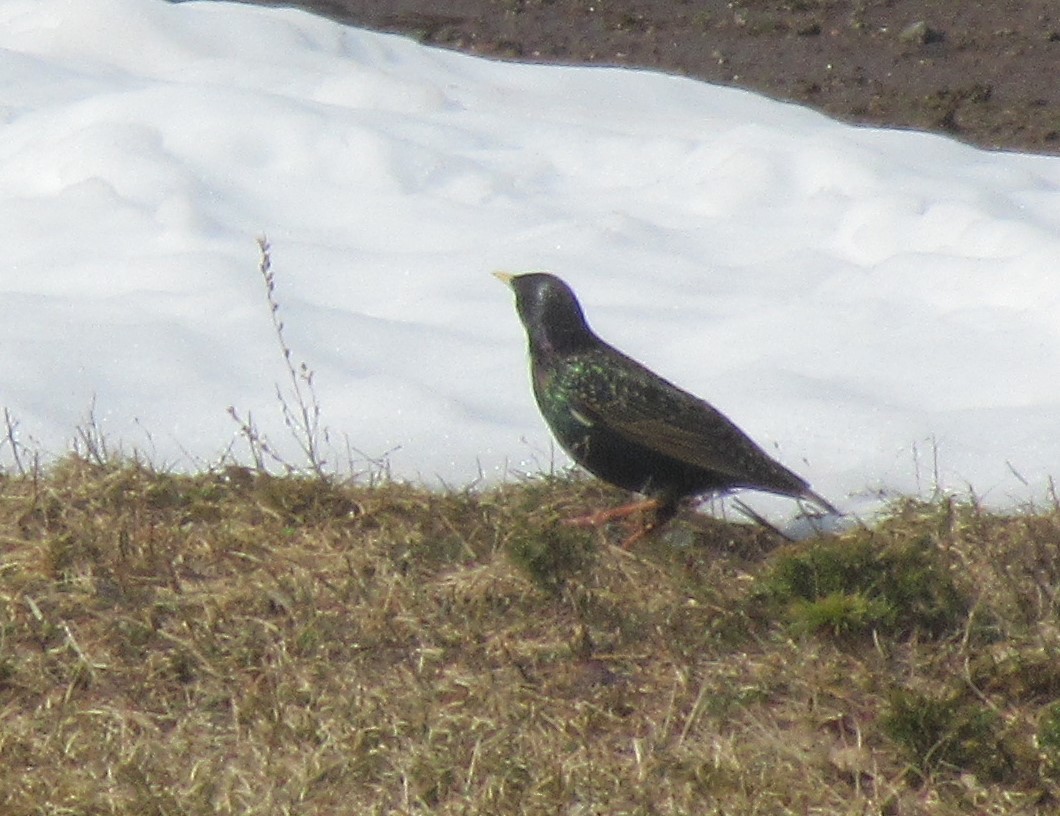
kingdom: Animalia
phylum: Chordata
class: Aves
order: Passeriformes
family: Sturnidae
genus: Sturnus
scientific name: Sturnus vulgaris
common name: Common starling
